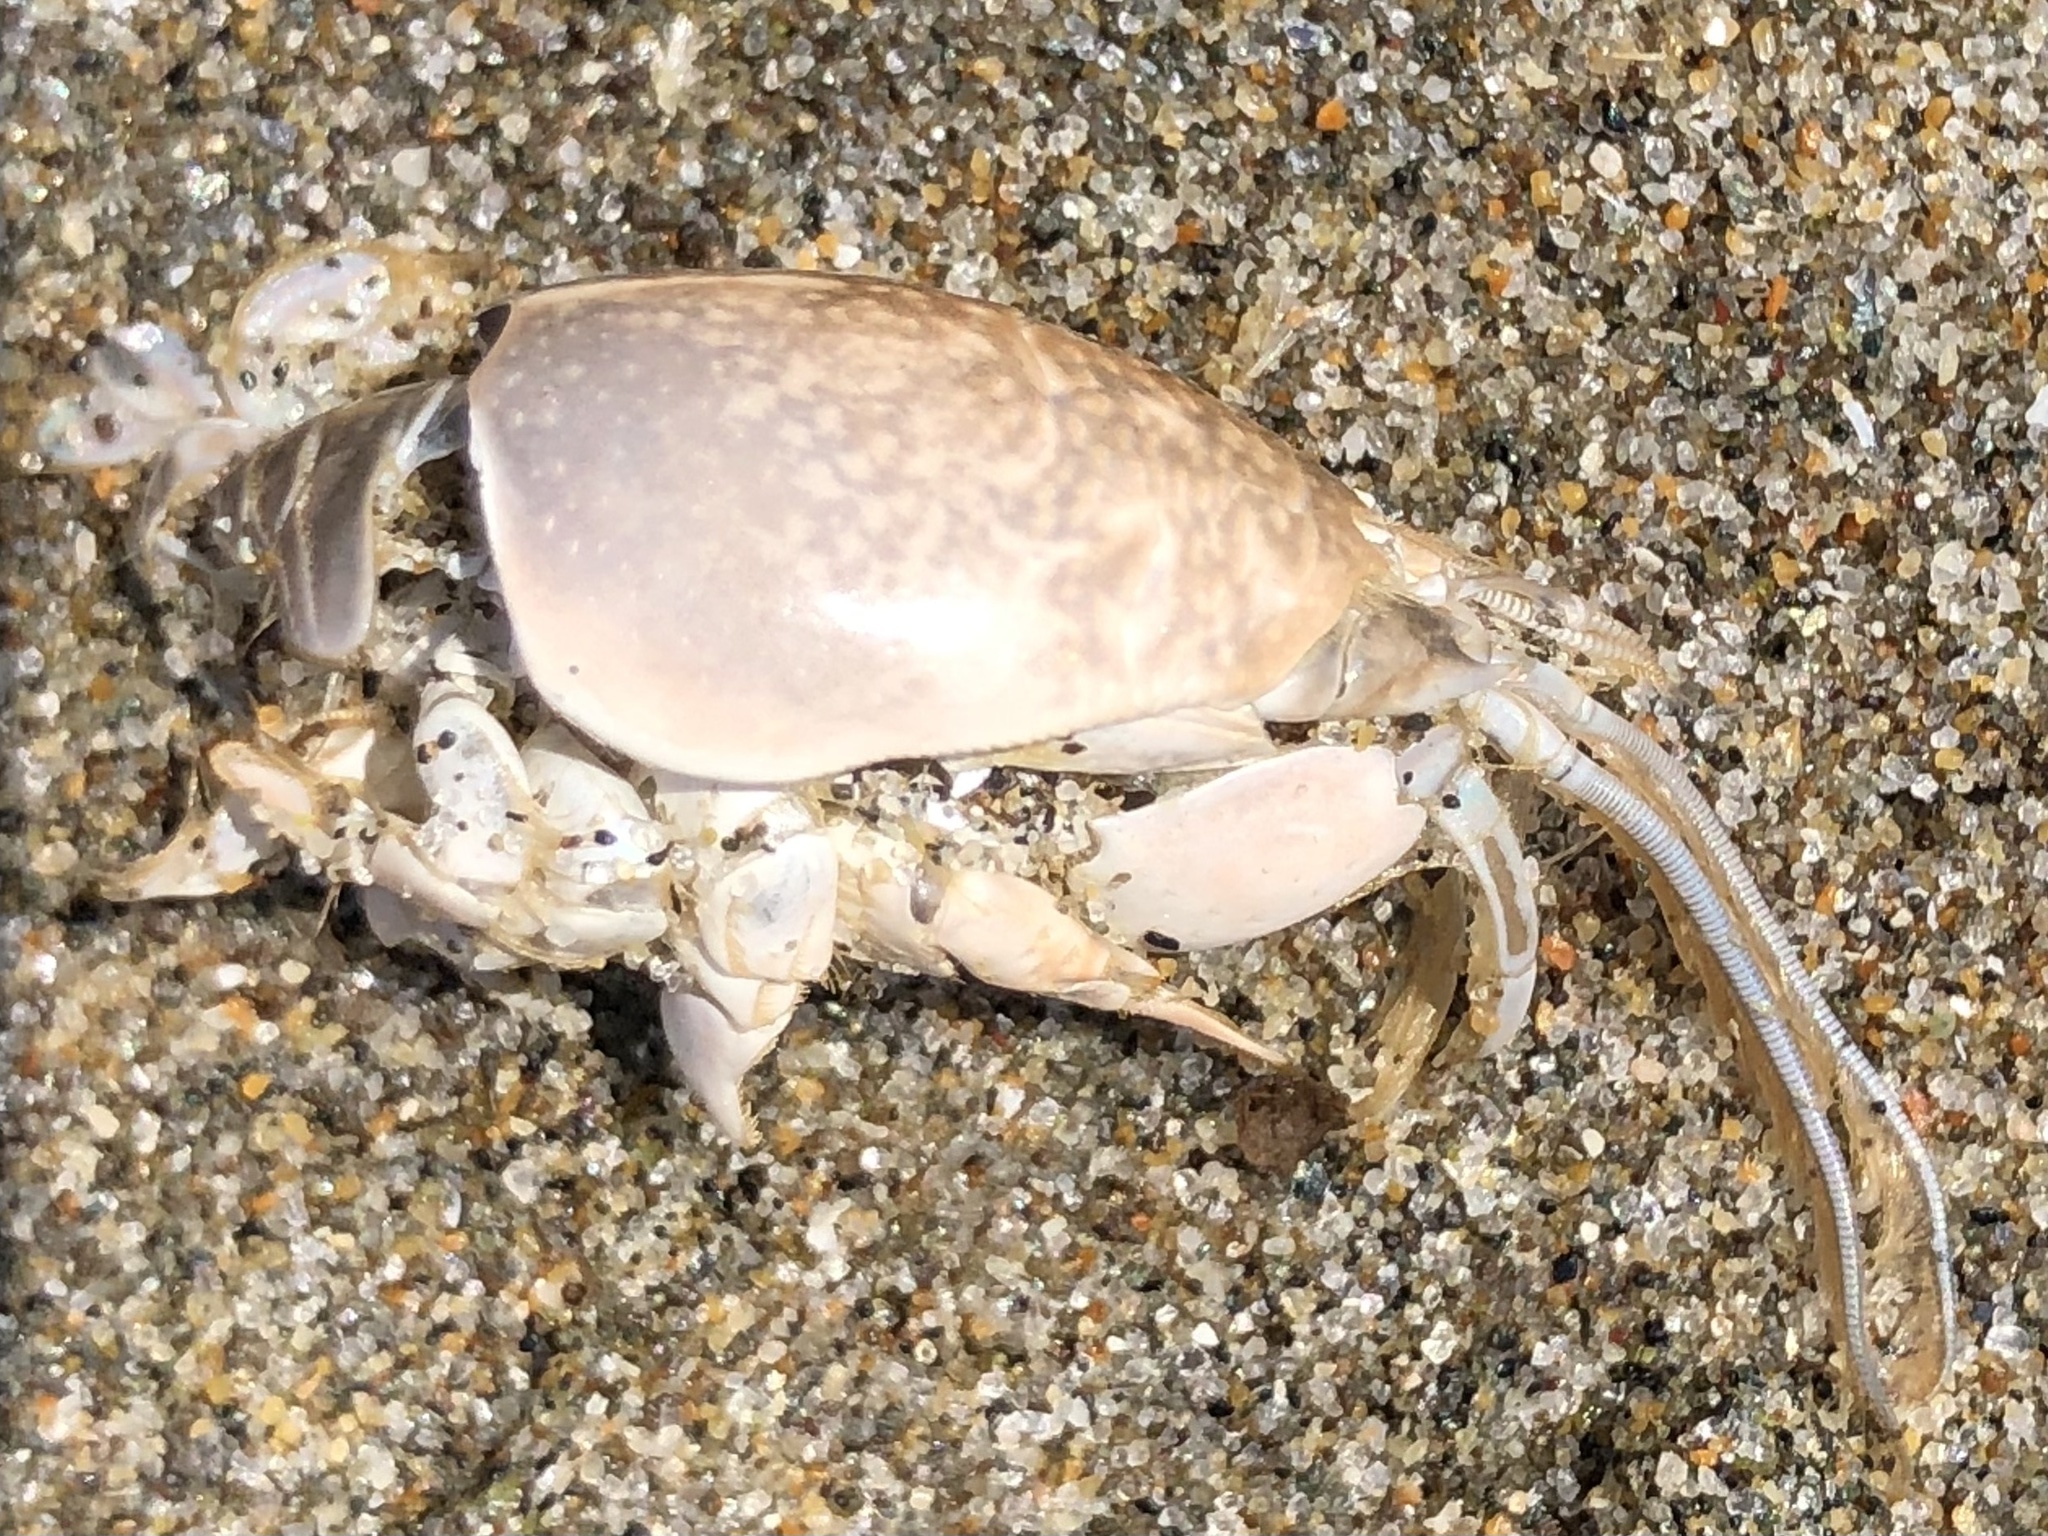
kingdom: Animalia
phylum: Arthropoda
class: Malacostraca
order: Decapoda
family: Hippidae
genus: Emerita
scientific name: Emerita analoga
